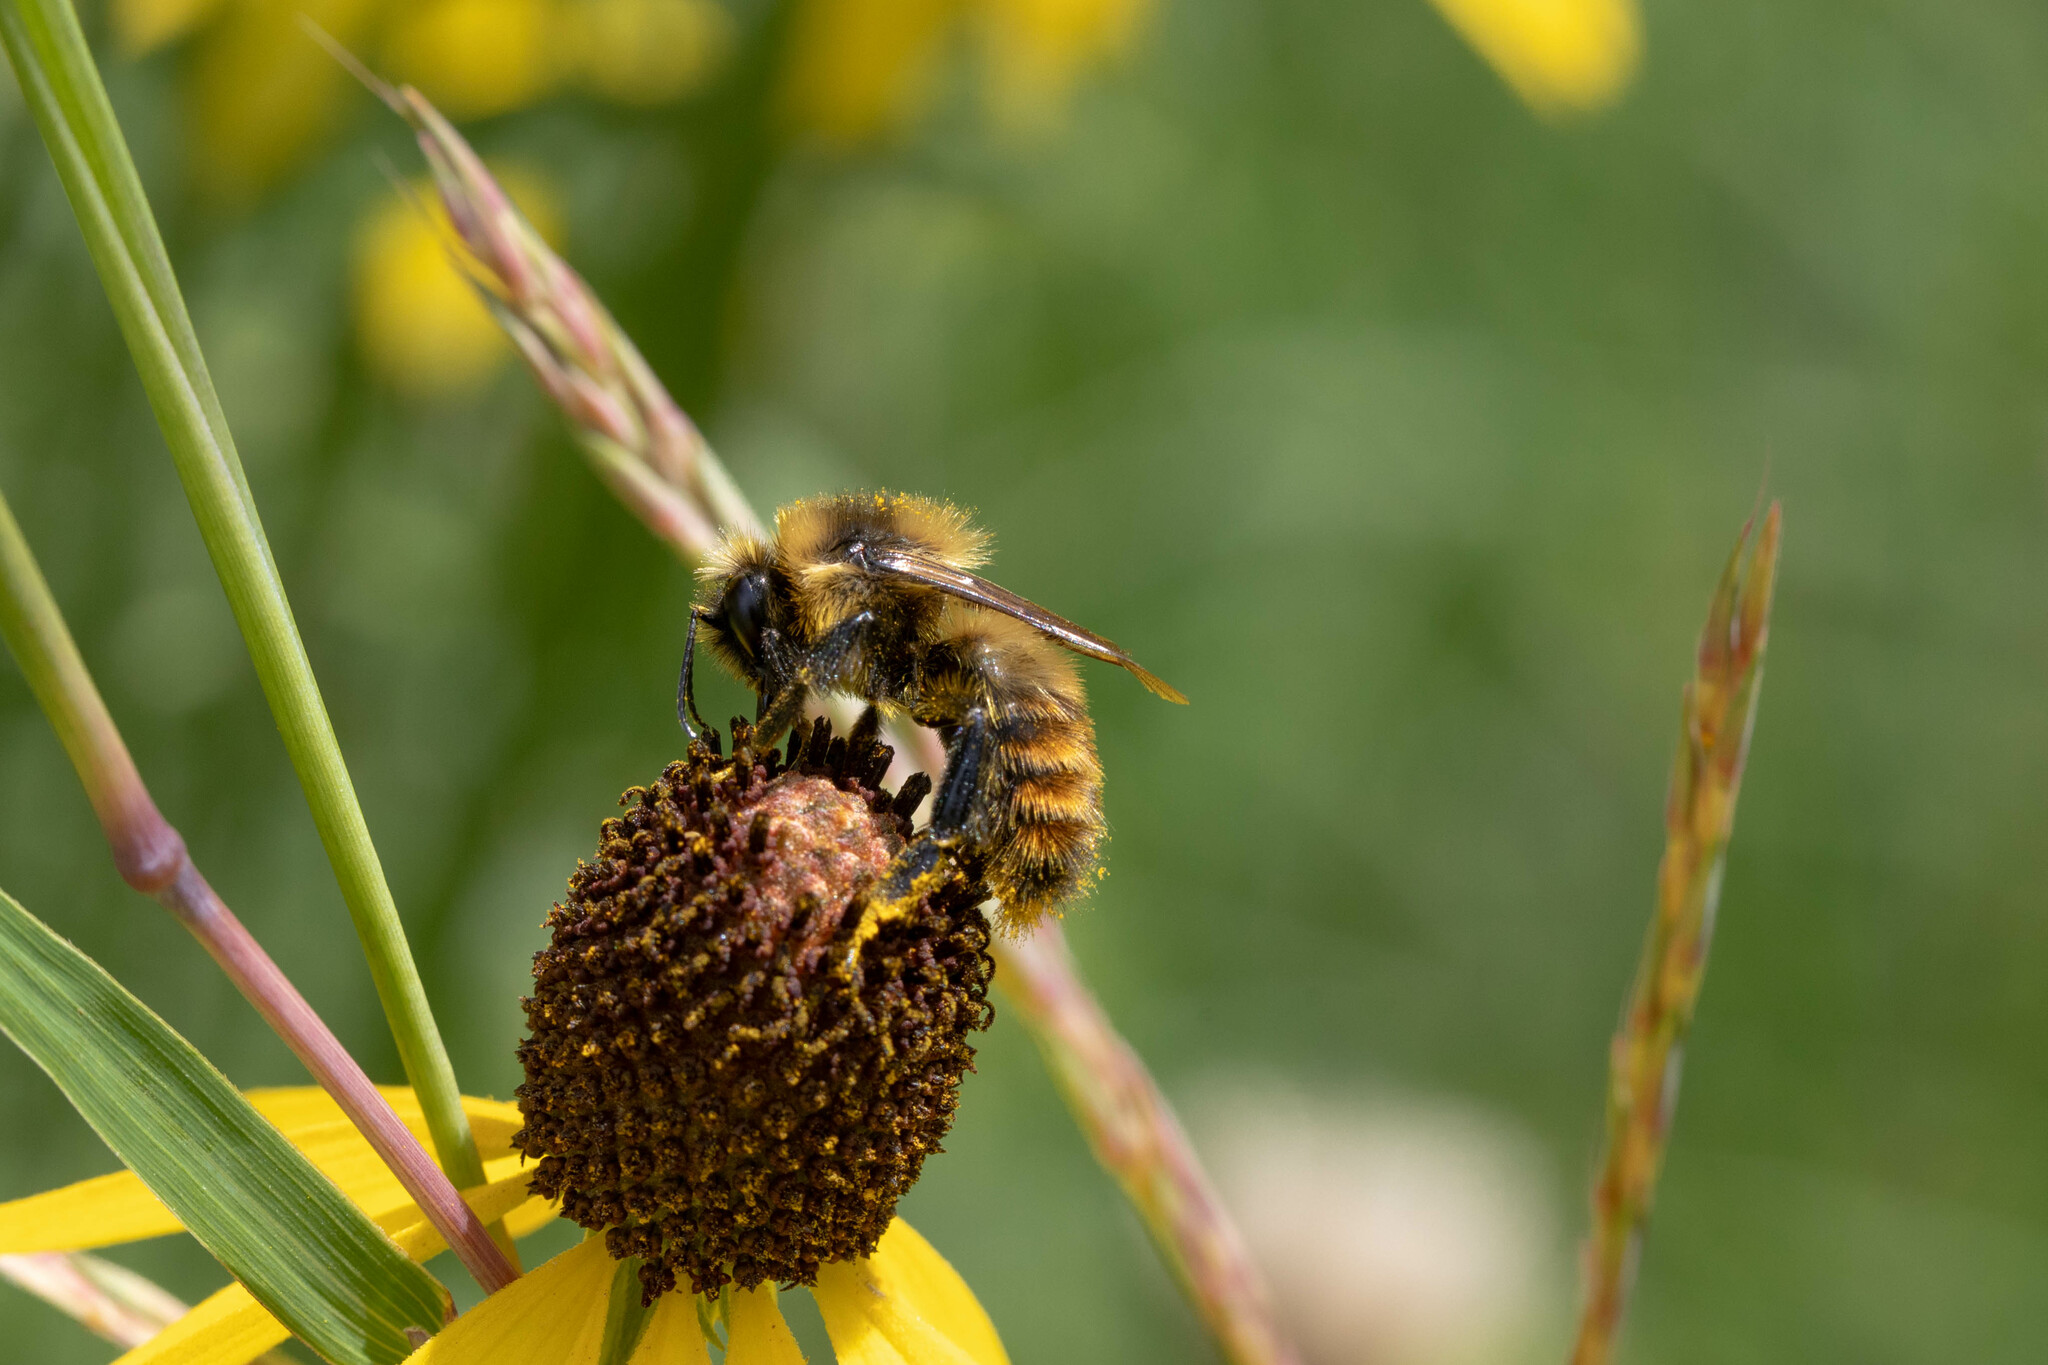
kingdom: Animalia
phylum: Arthropoda
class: Insecta
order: Hymenoptera
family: Apidae
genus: Bombus
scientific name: Bombus rufocinctus
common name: Red-belted bumble bee
